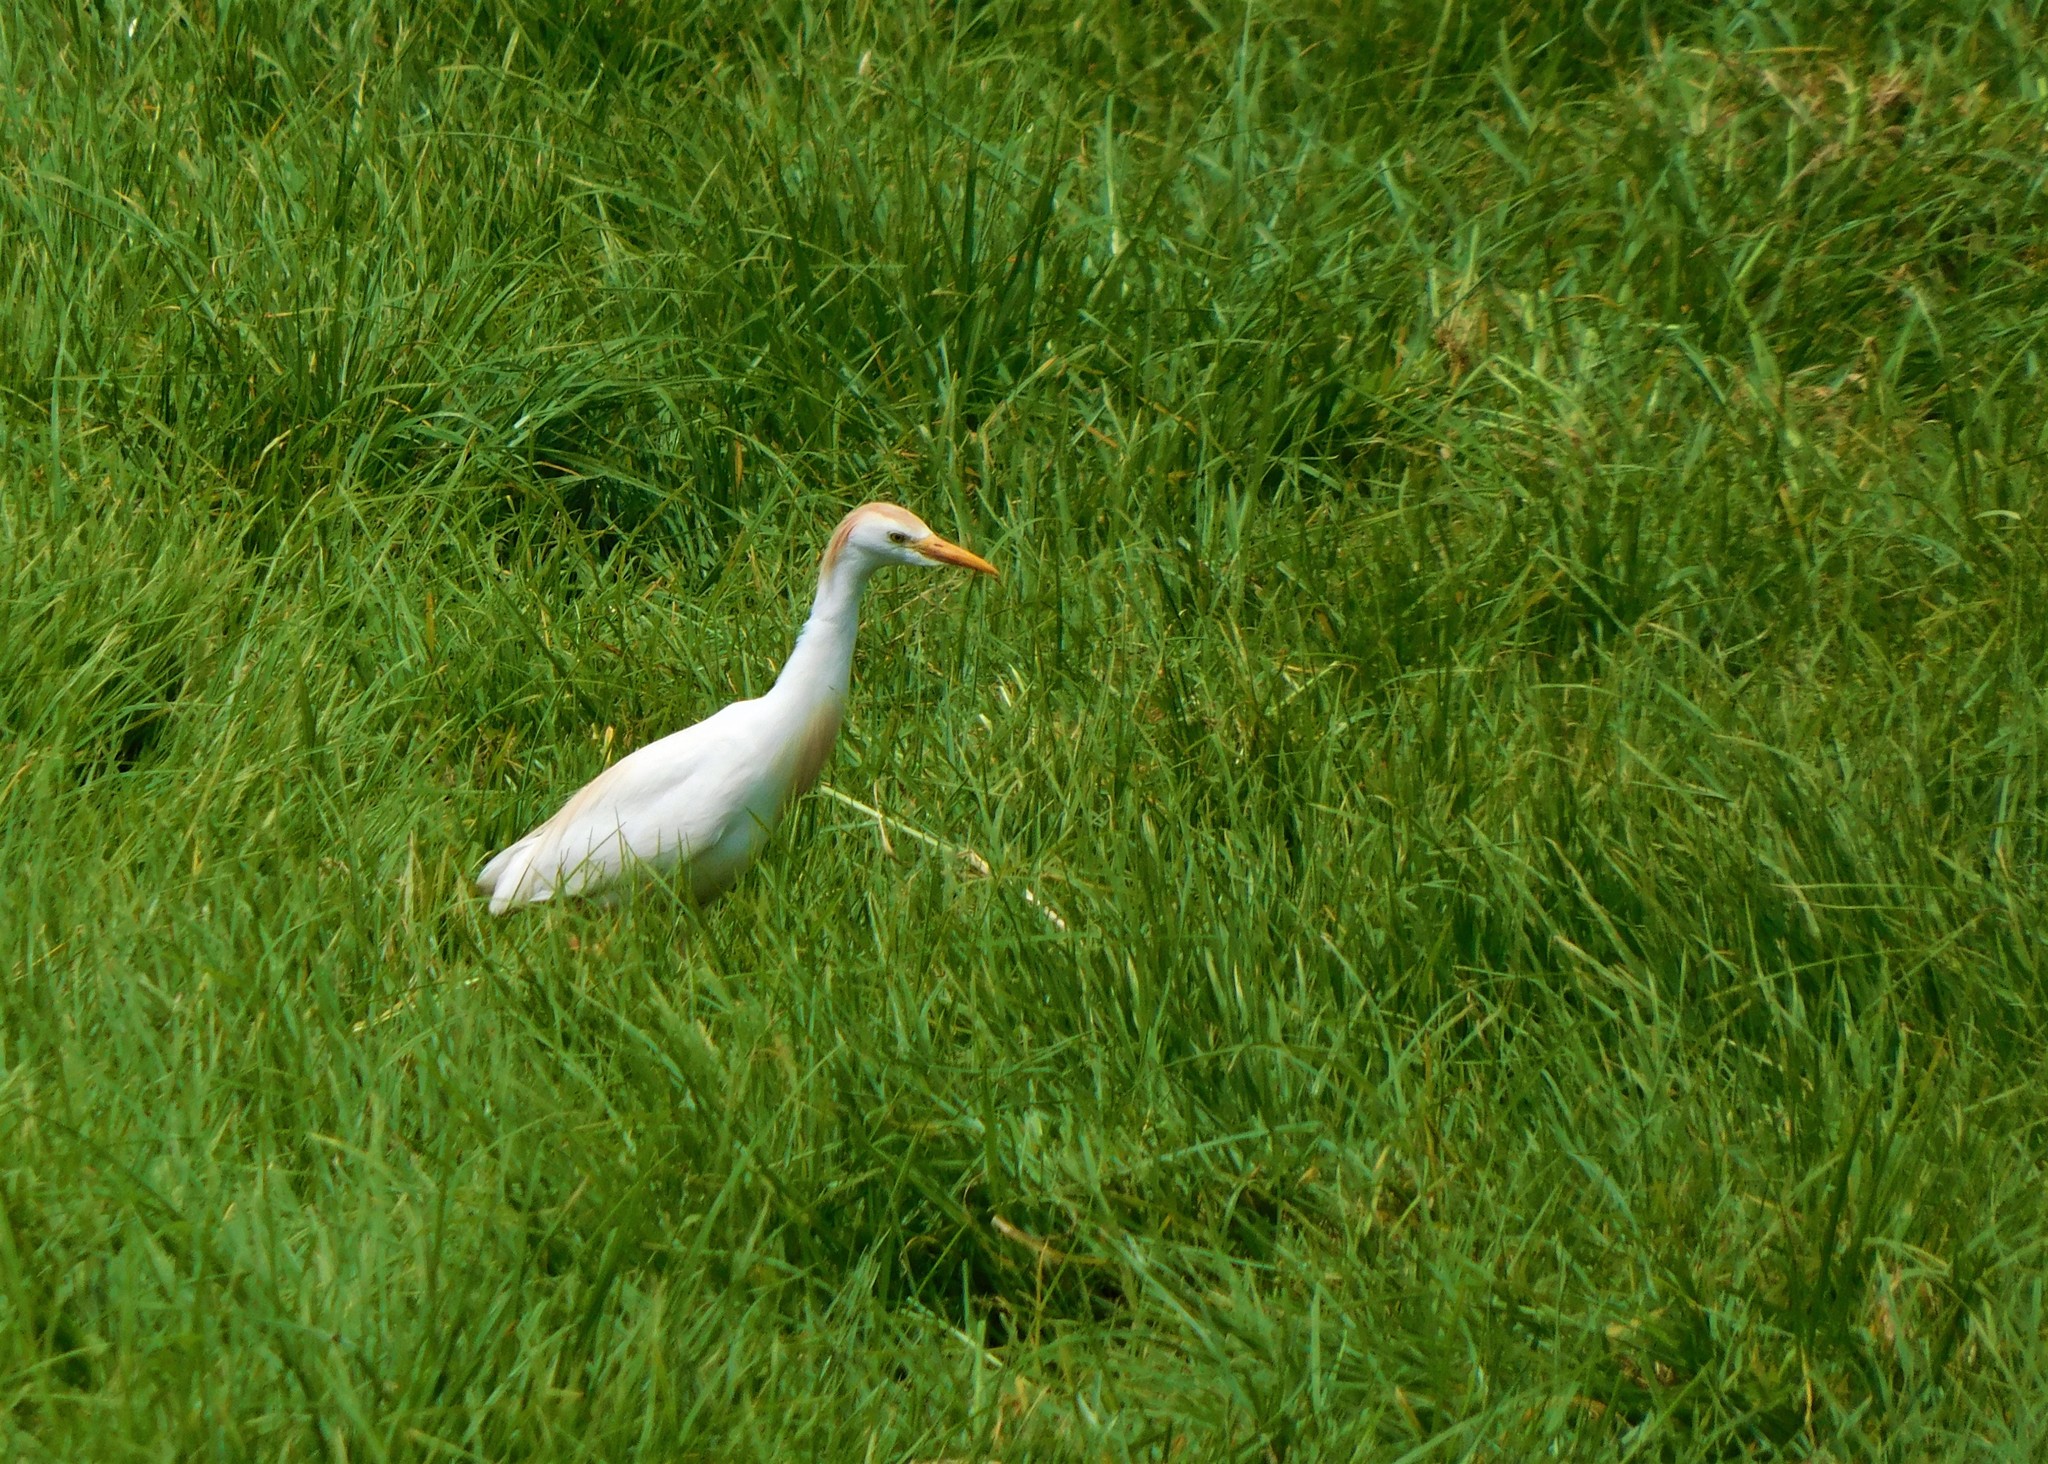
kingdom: Animalia
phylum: Chordata
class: Aves
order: Pelecaniformes
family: Ardeidae
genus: Bubulcus
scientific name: Bubulcus ibis
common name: Cattle egret
